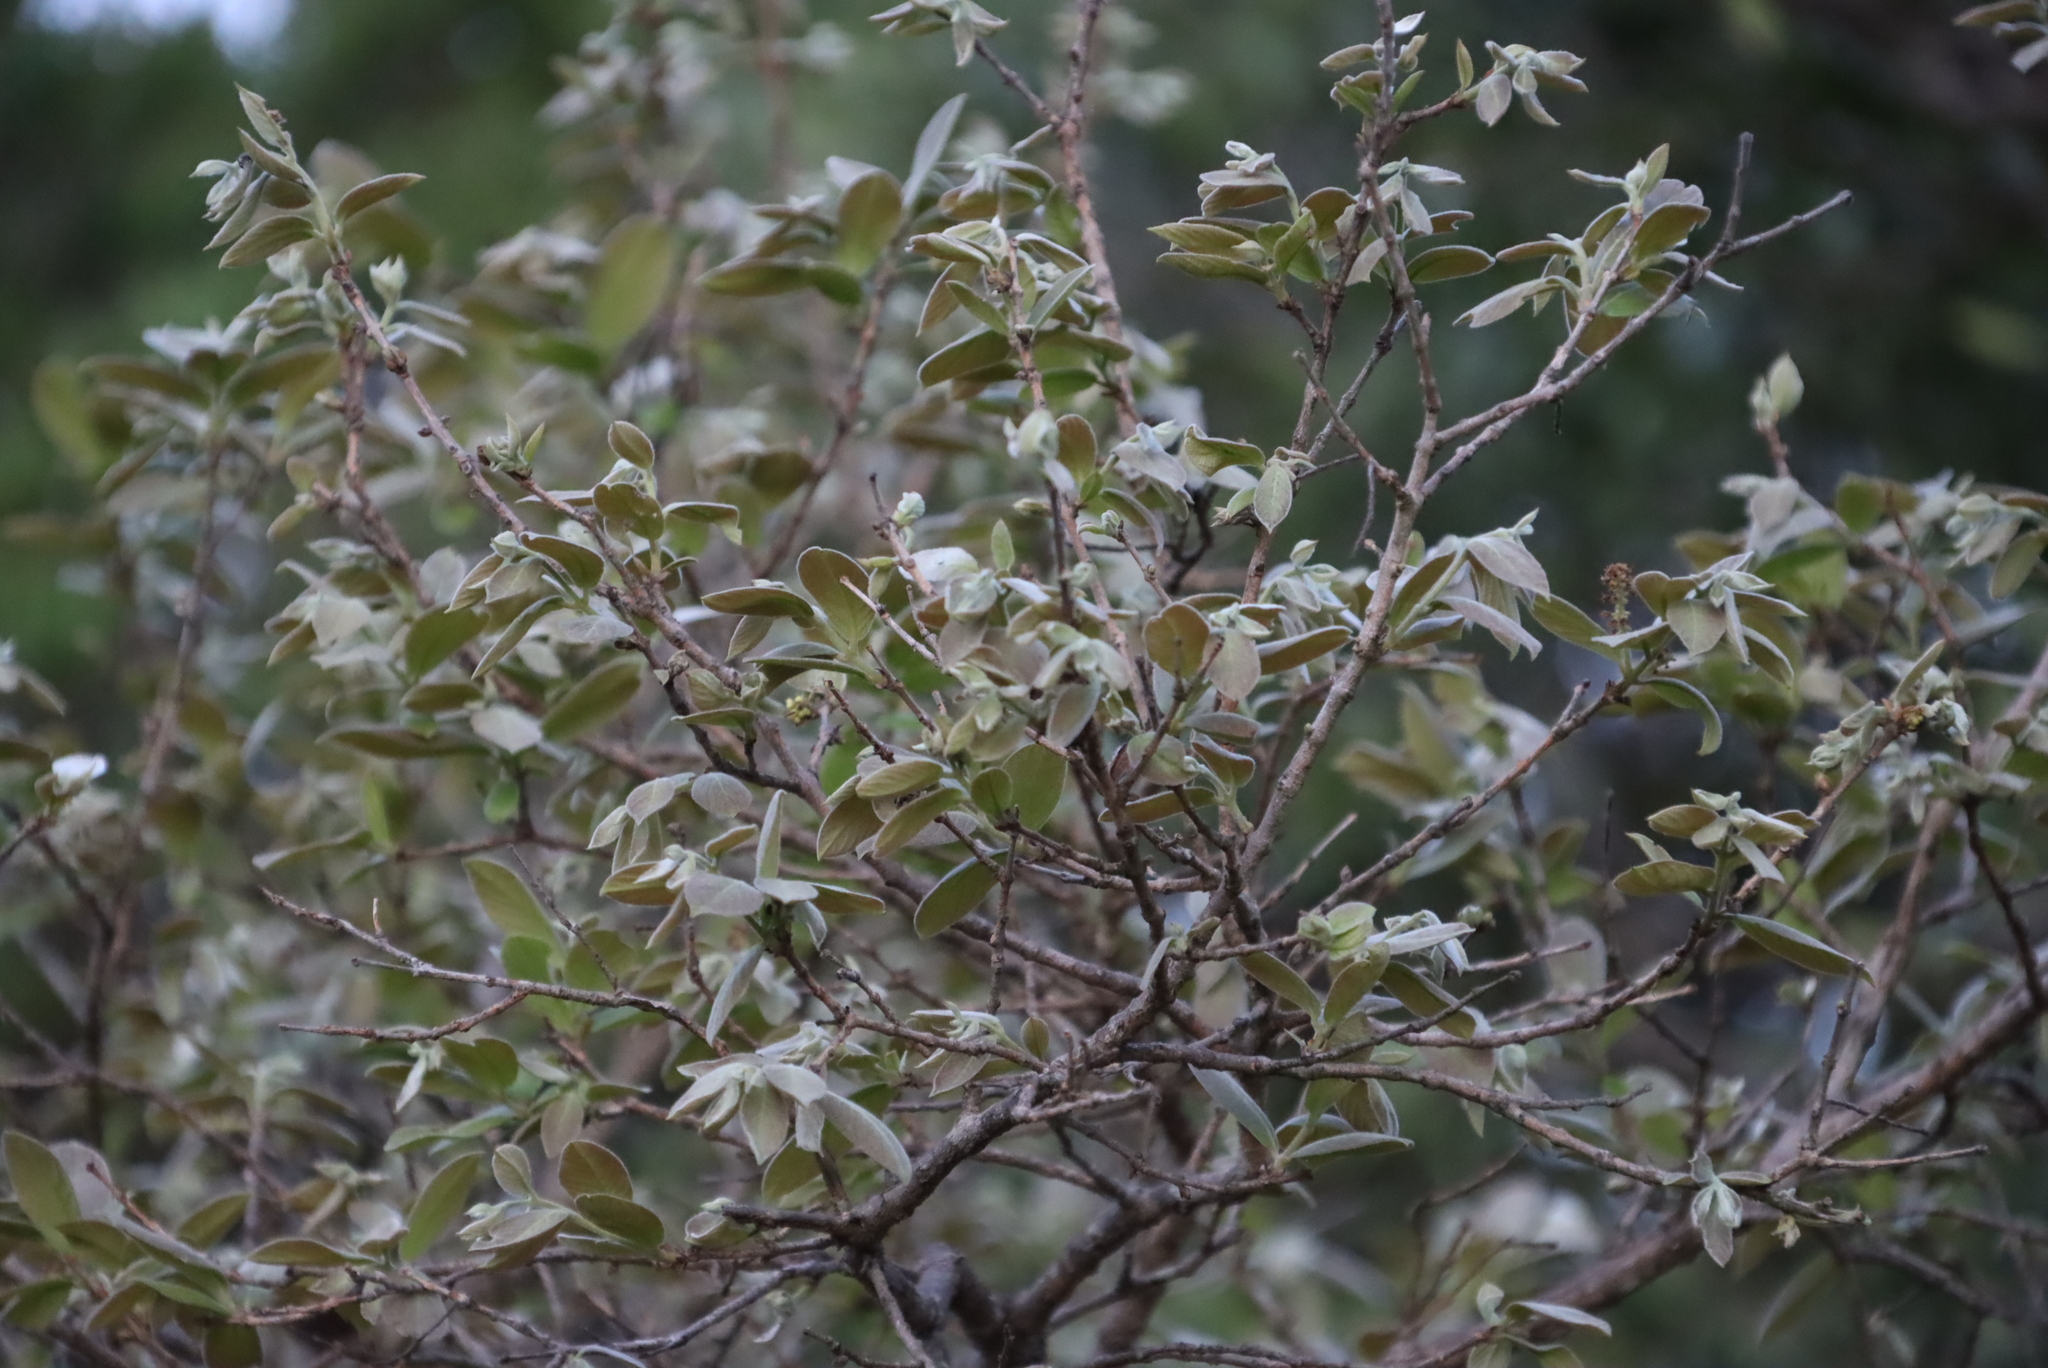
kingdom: Plantae
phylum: Tracheophyta
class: Magnoliopsida
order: Myrtales
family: Combretaceae
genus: Combretum
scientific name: Combretum molle
